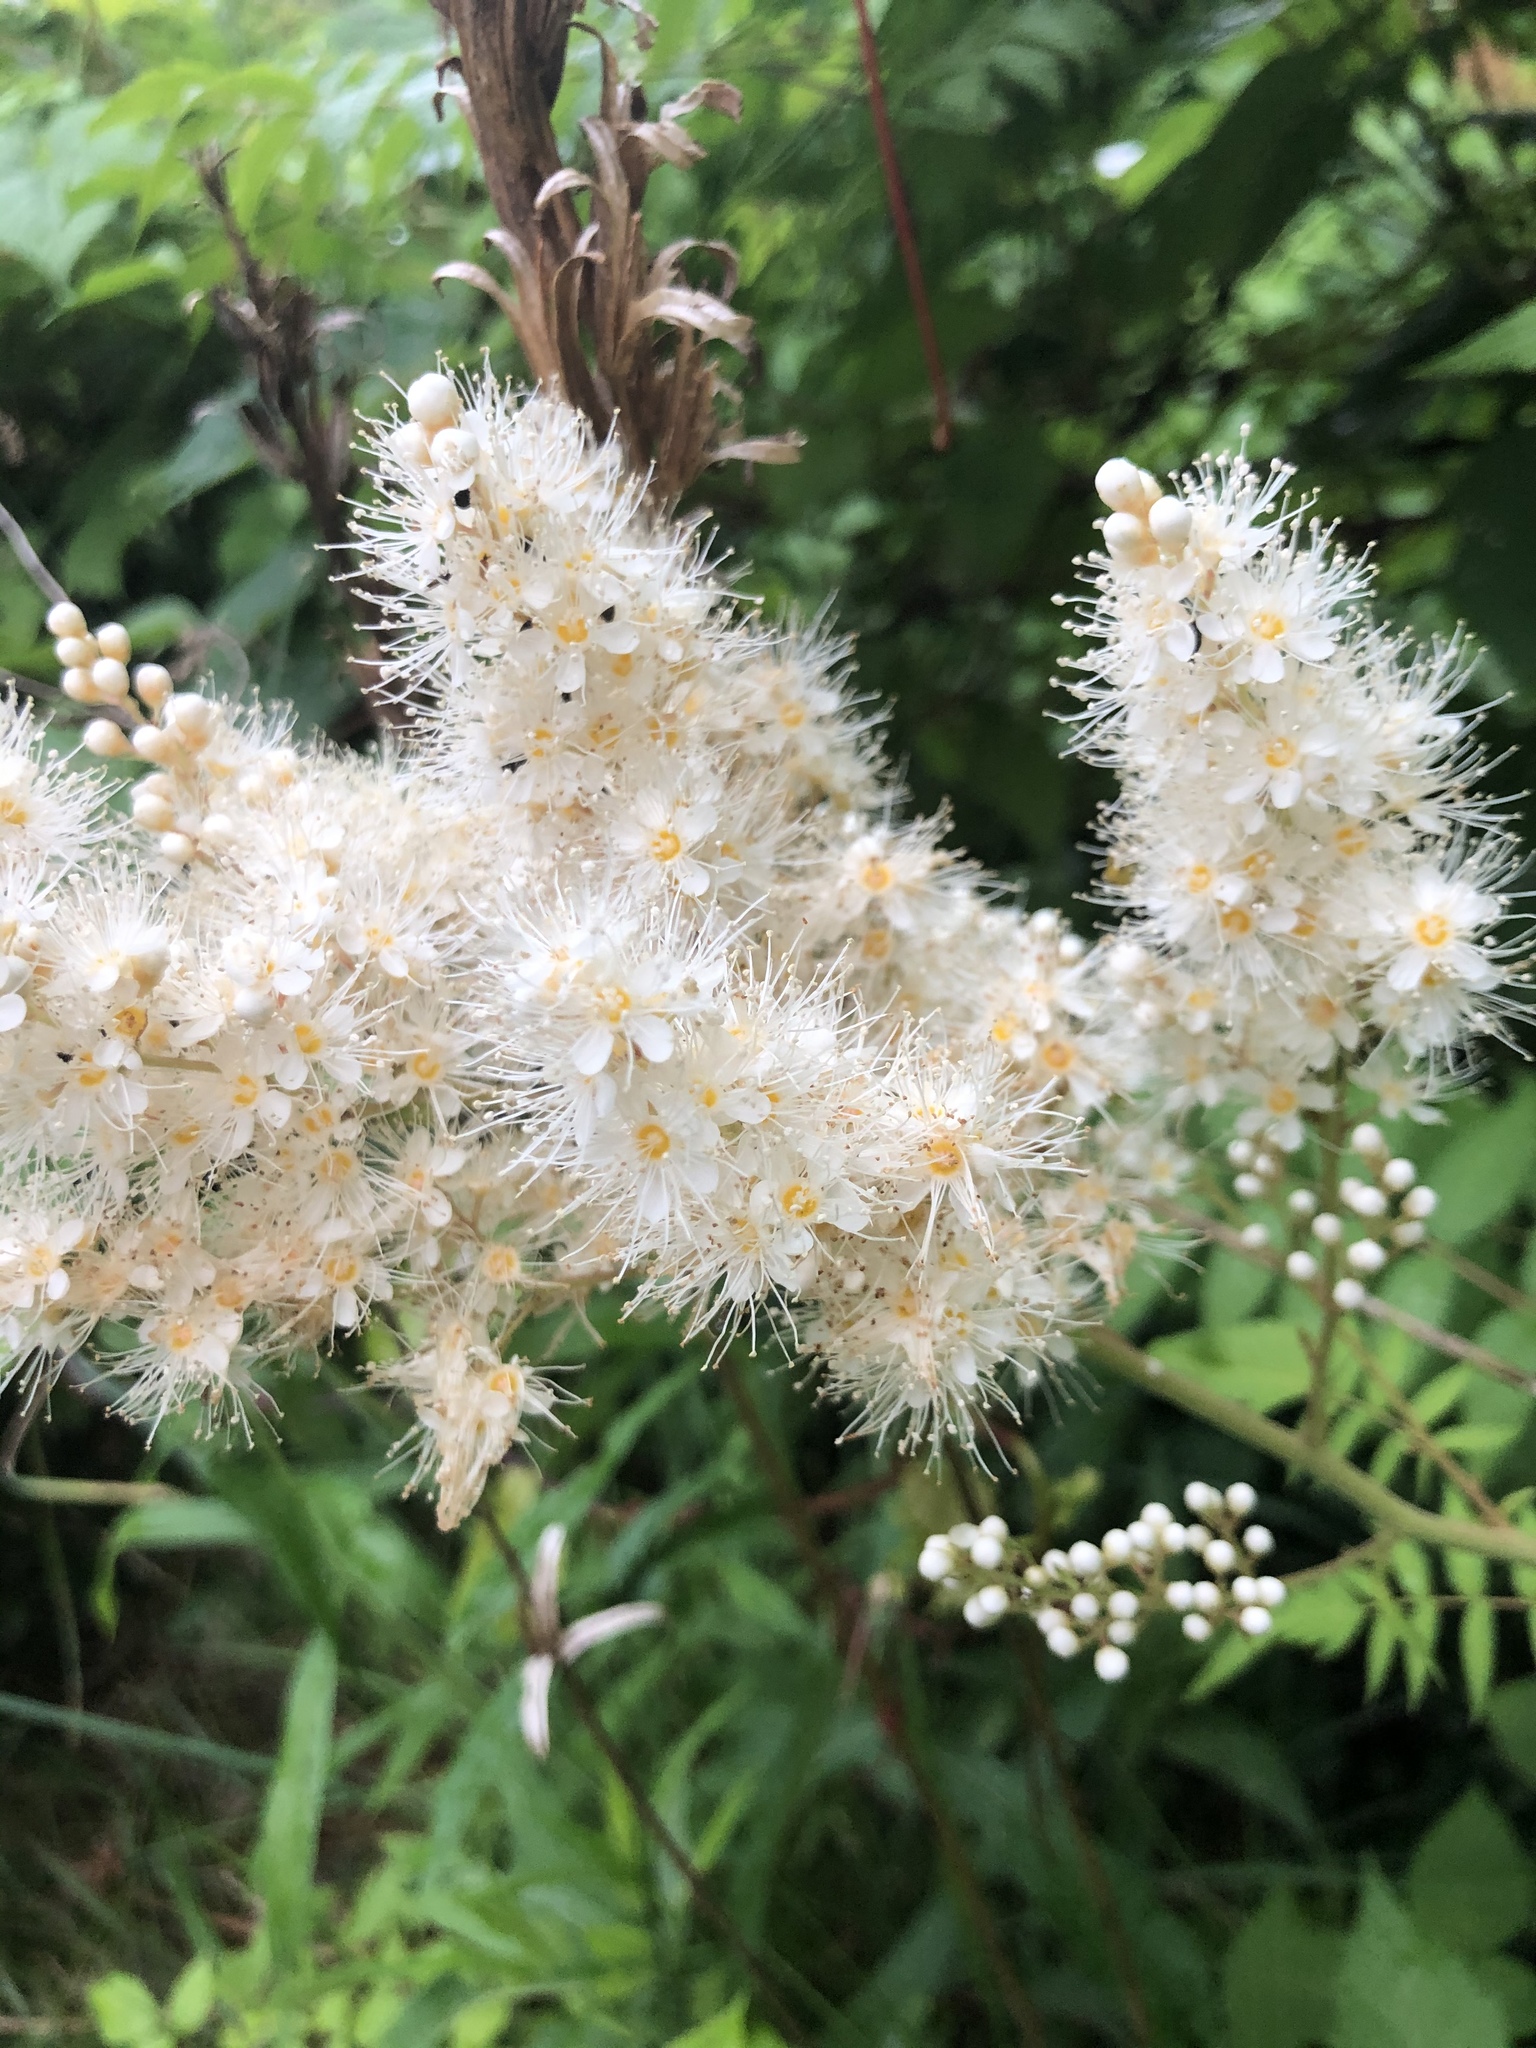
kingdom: Plantae
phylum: Tracheophyta
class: Magnoliopsida
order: Rosales
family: Rosaceae
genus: Sorbaria
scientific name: Sorbaria sorbifolia
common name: False spiraea
